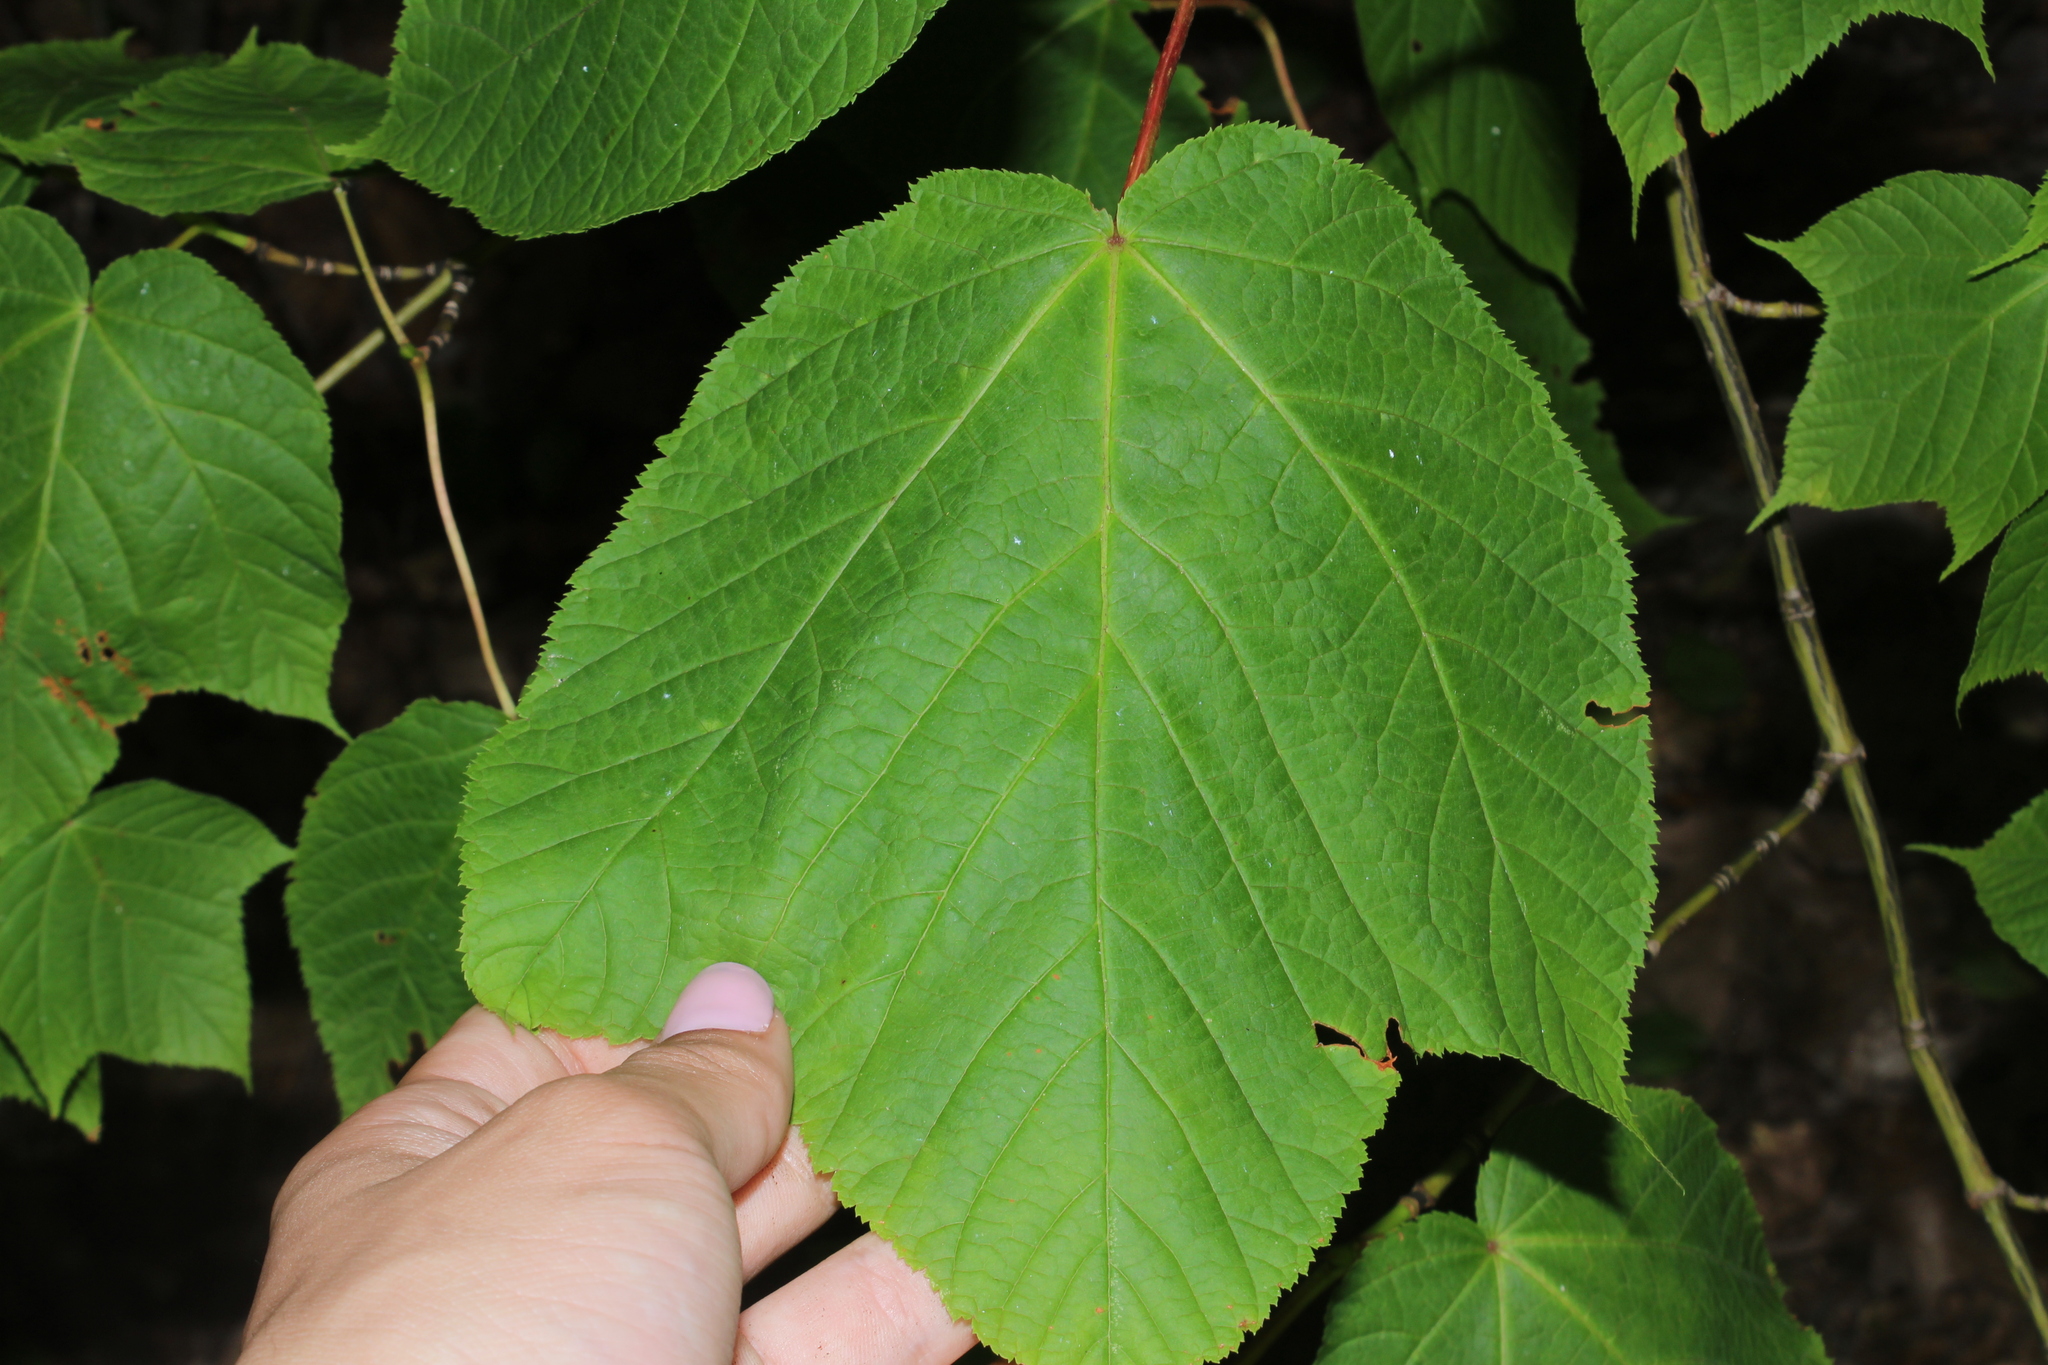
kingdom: Plantae
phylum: Tracheophyta
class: Magnoliopsida
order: Sapindales
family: Sapindaceae
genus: Acer
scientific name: Acer pensylvanicum
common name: Moosewood
